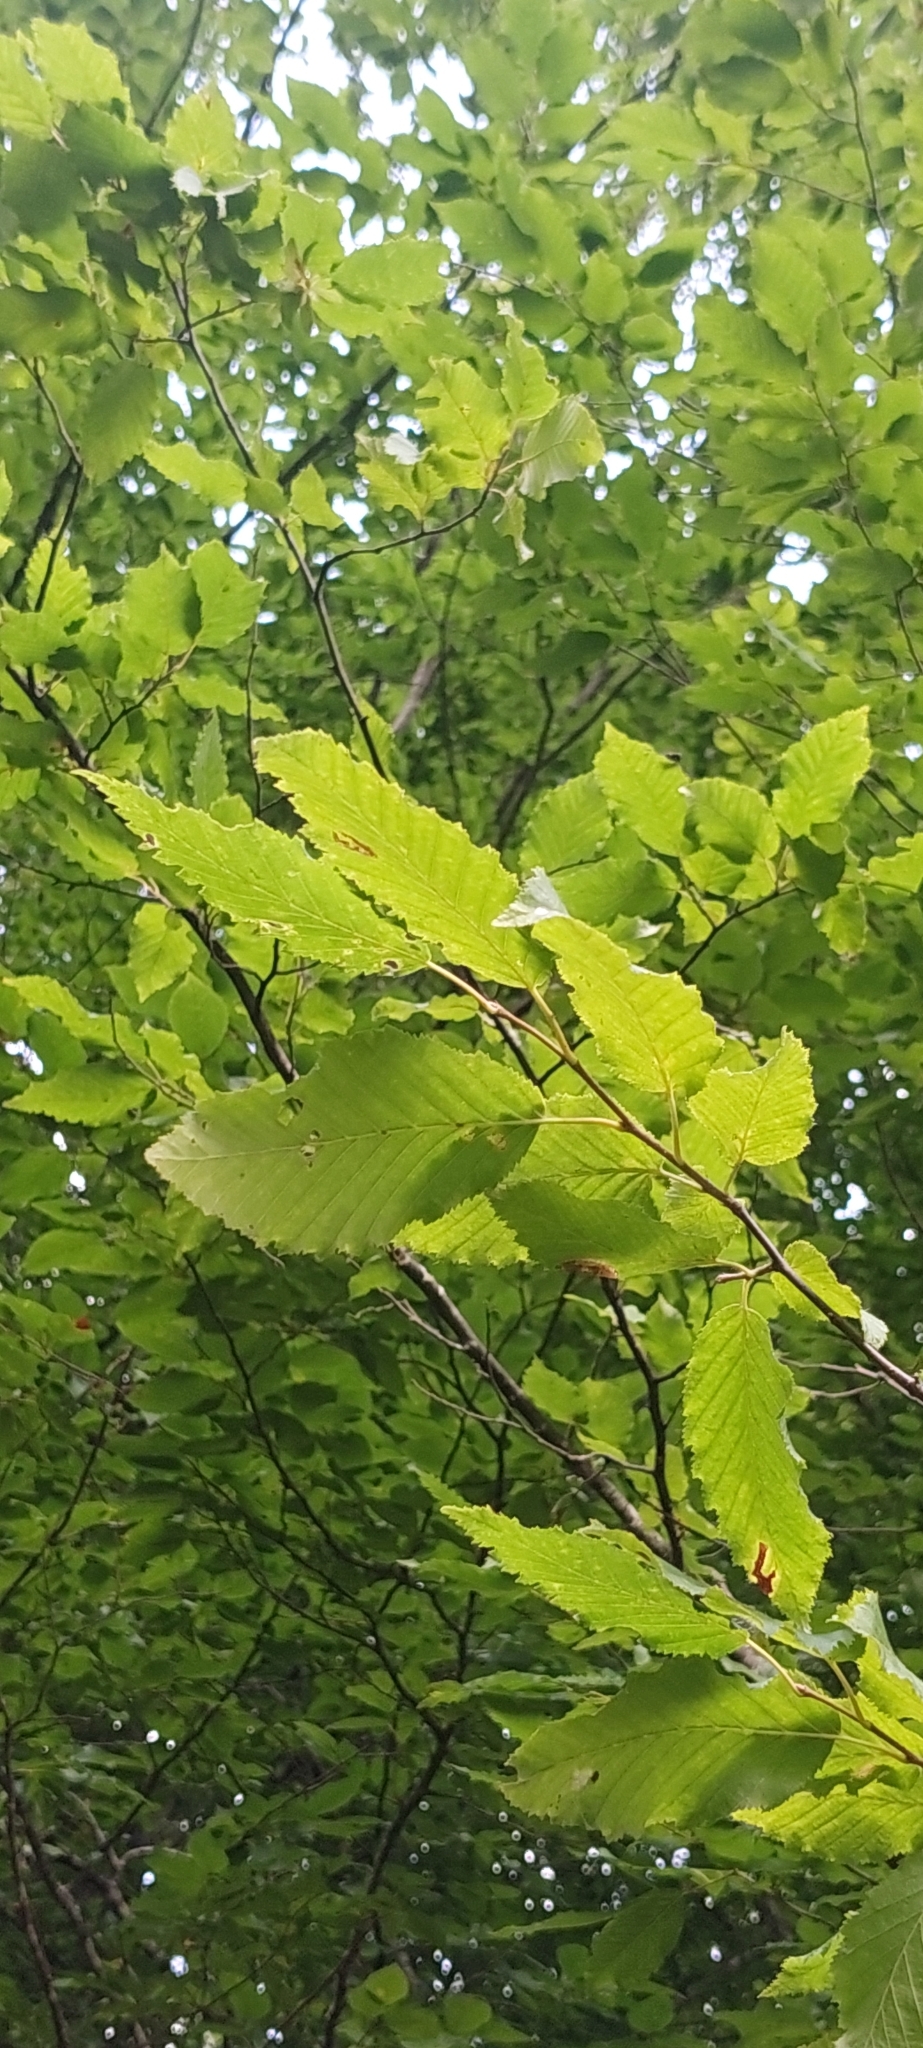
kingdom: Plantae
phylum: Tracheophyta
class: Magnoliopsida
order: Fagales
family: Betulaceae
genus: Carpinus
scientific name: Carpinus betulus
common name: Hornbeam
